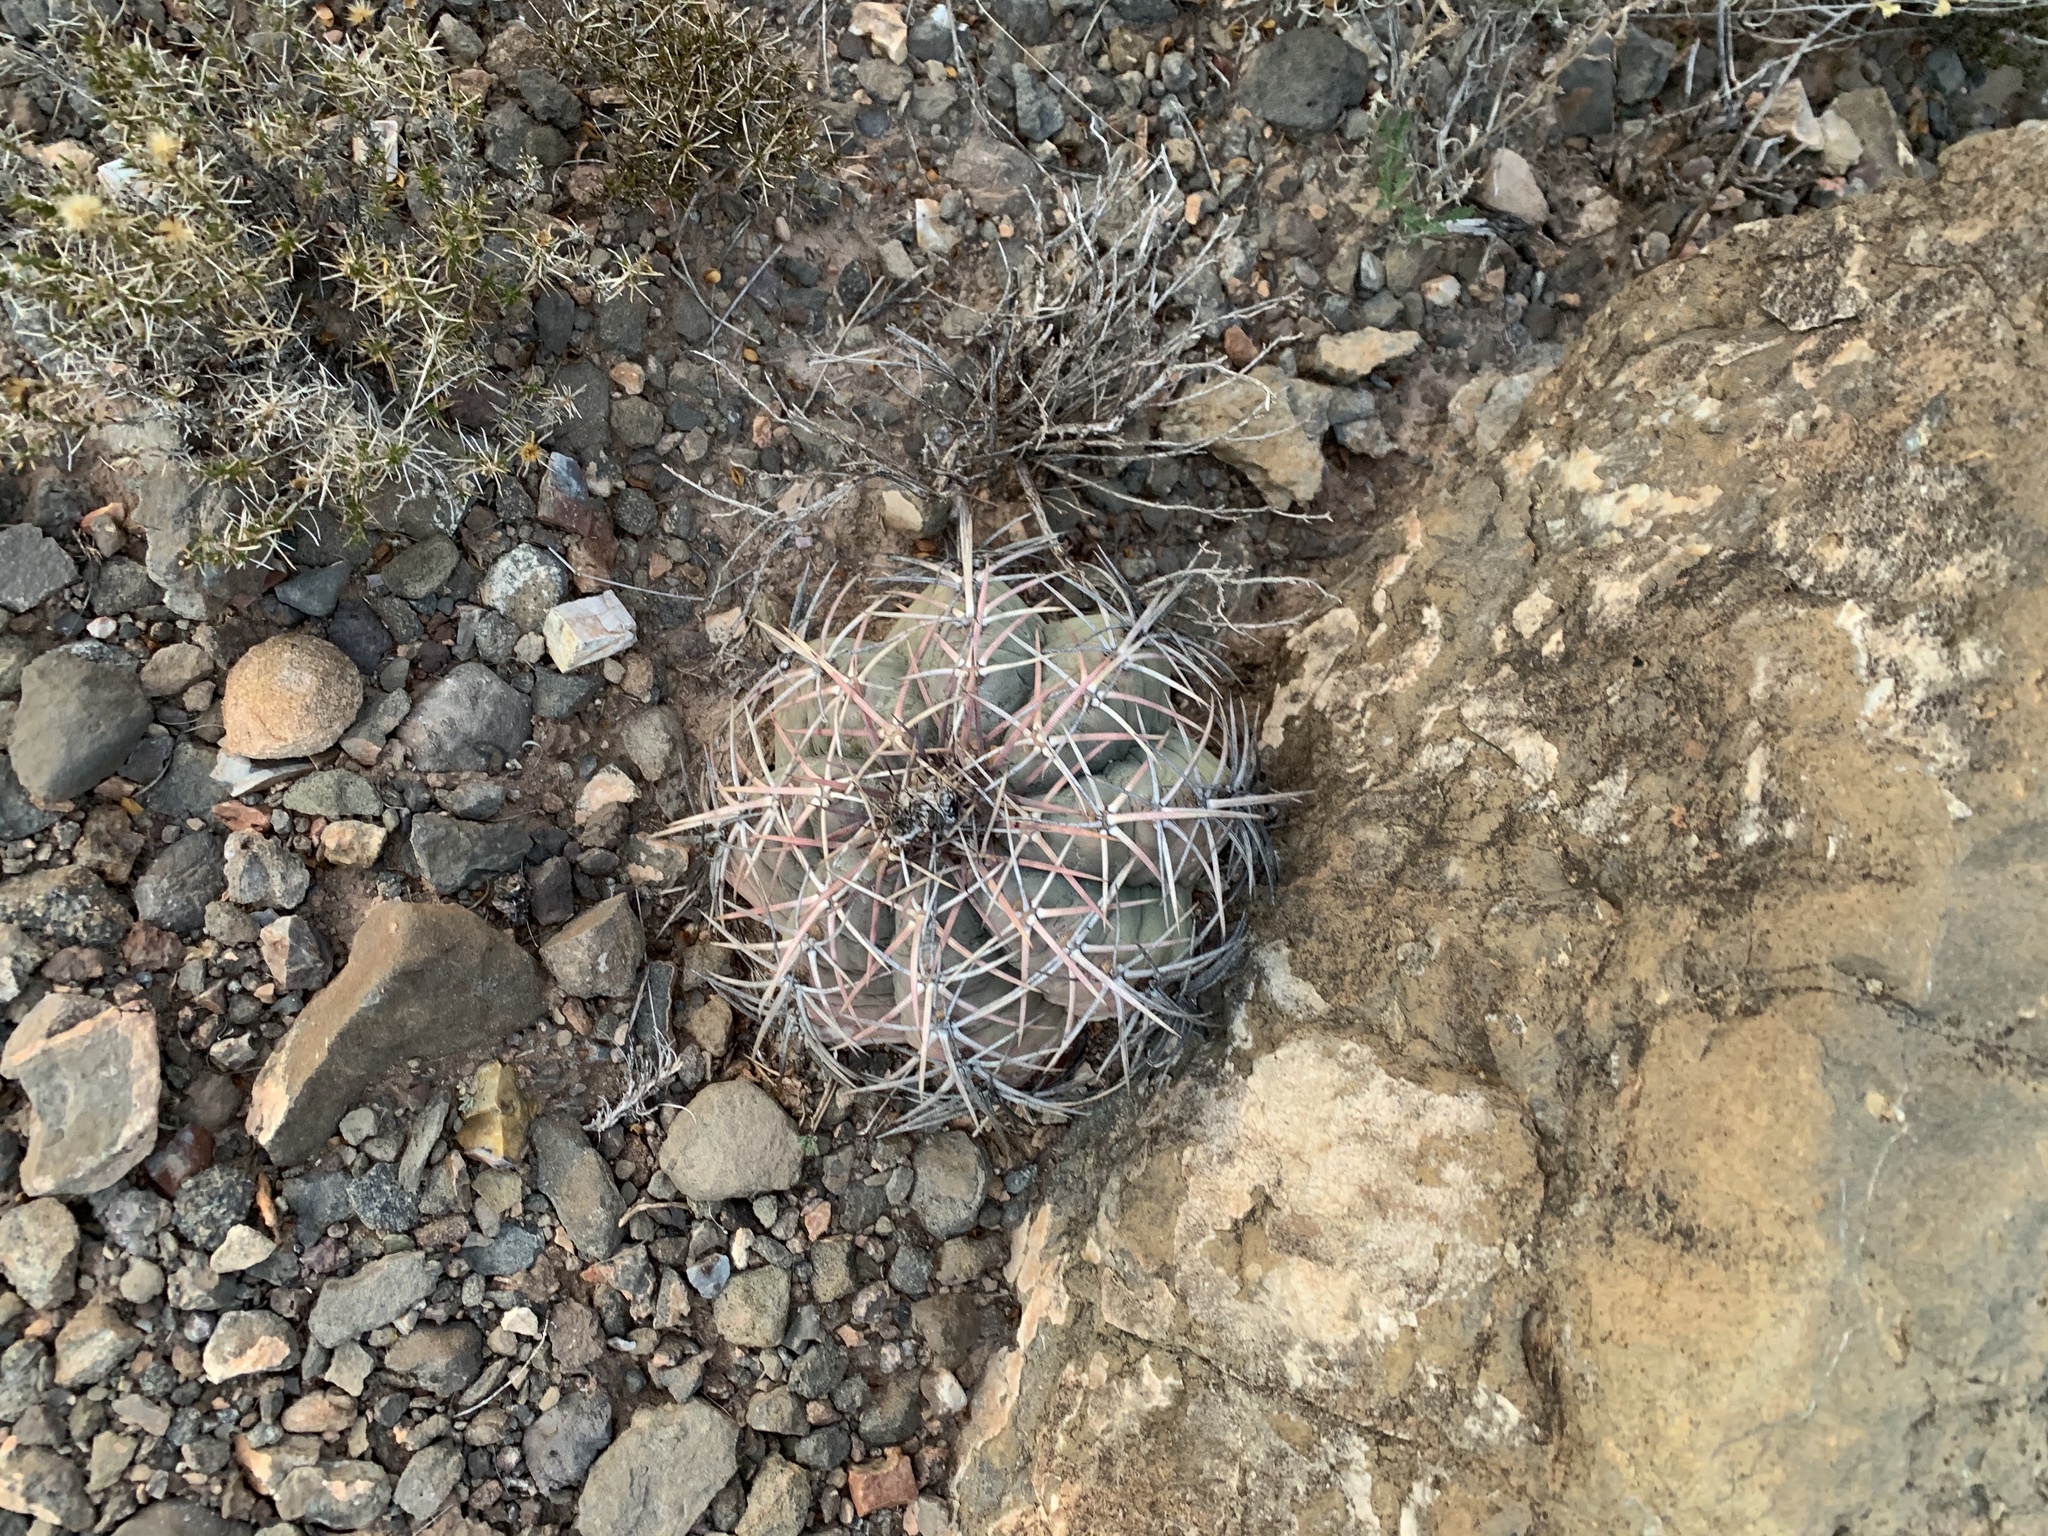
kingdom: Plantae
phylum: Tracheophyta
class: Magnoliopsida
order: Caryophyllales
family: Cactaceae
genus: Echinocactus
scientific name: Echinocactus horizonthalonius
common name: Devilshead
